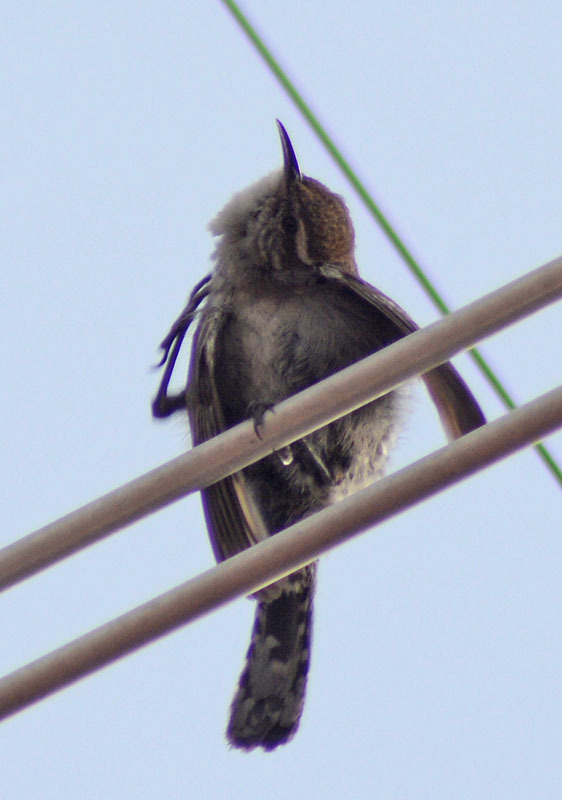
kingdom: Animalia
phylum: Chordata
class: Aves
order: Passeriformes
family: Troglodytidae
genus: Thryomanes
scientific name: Thryomanes bewickii
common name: Bewick's wren
